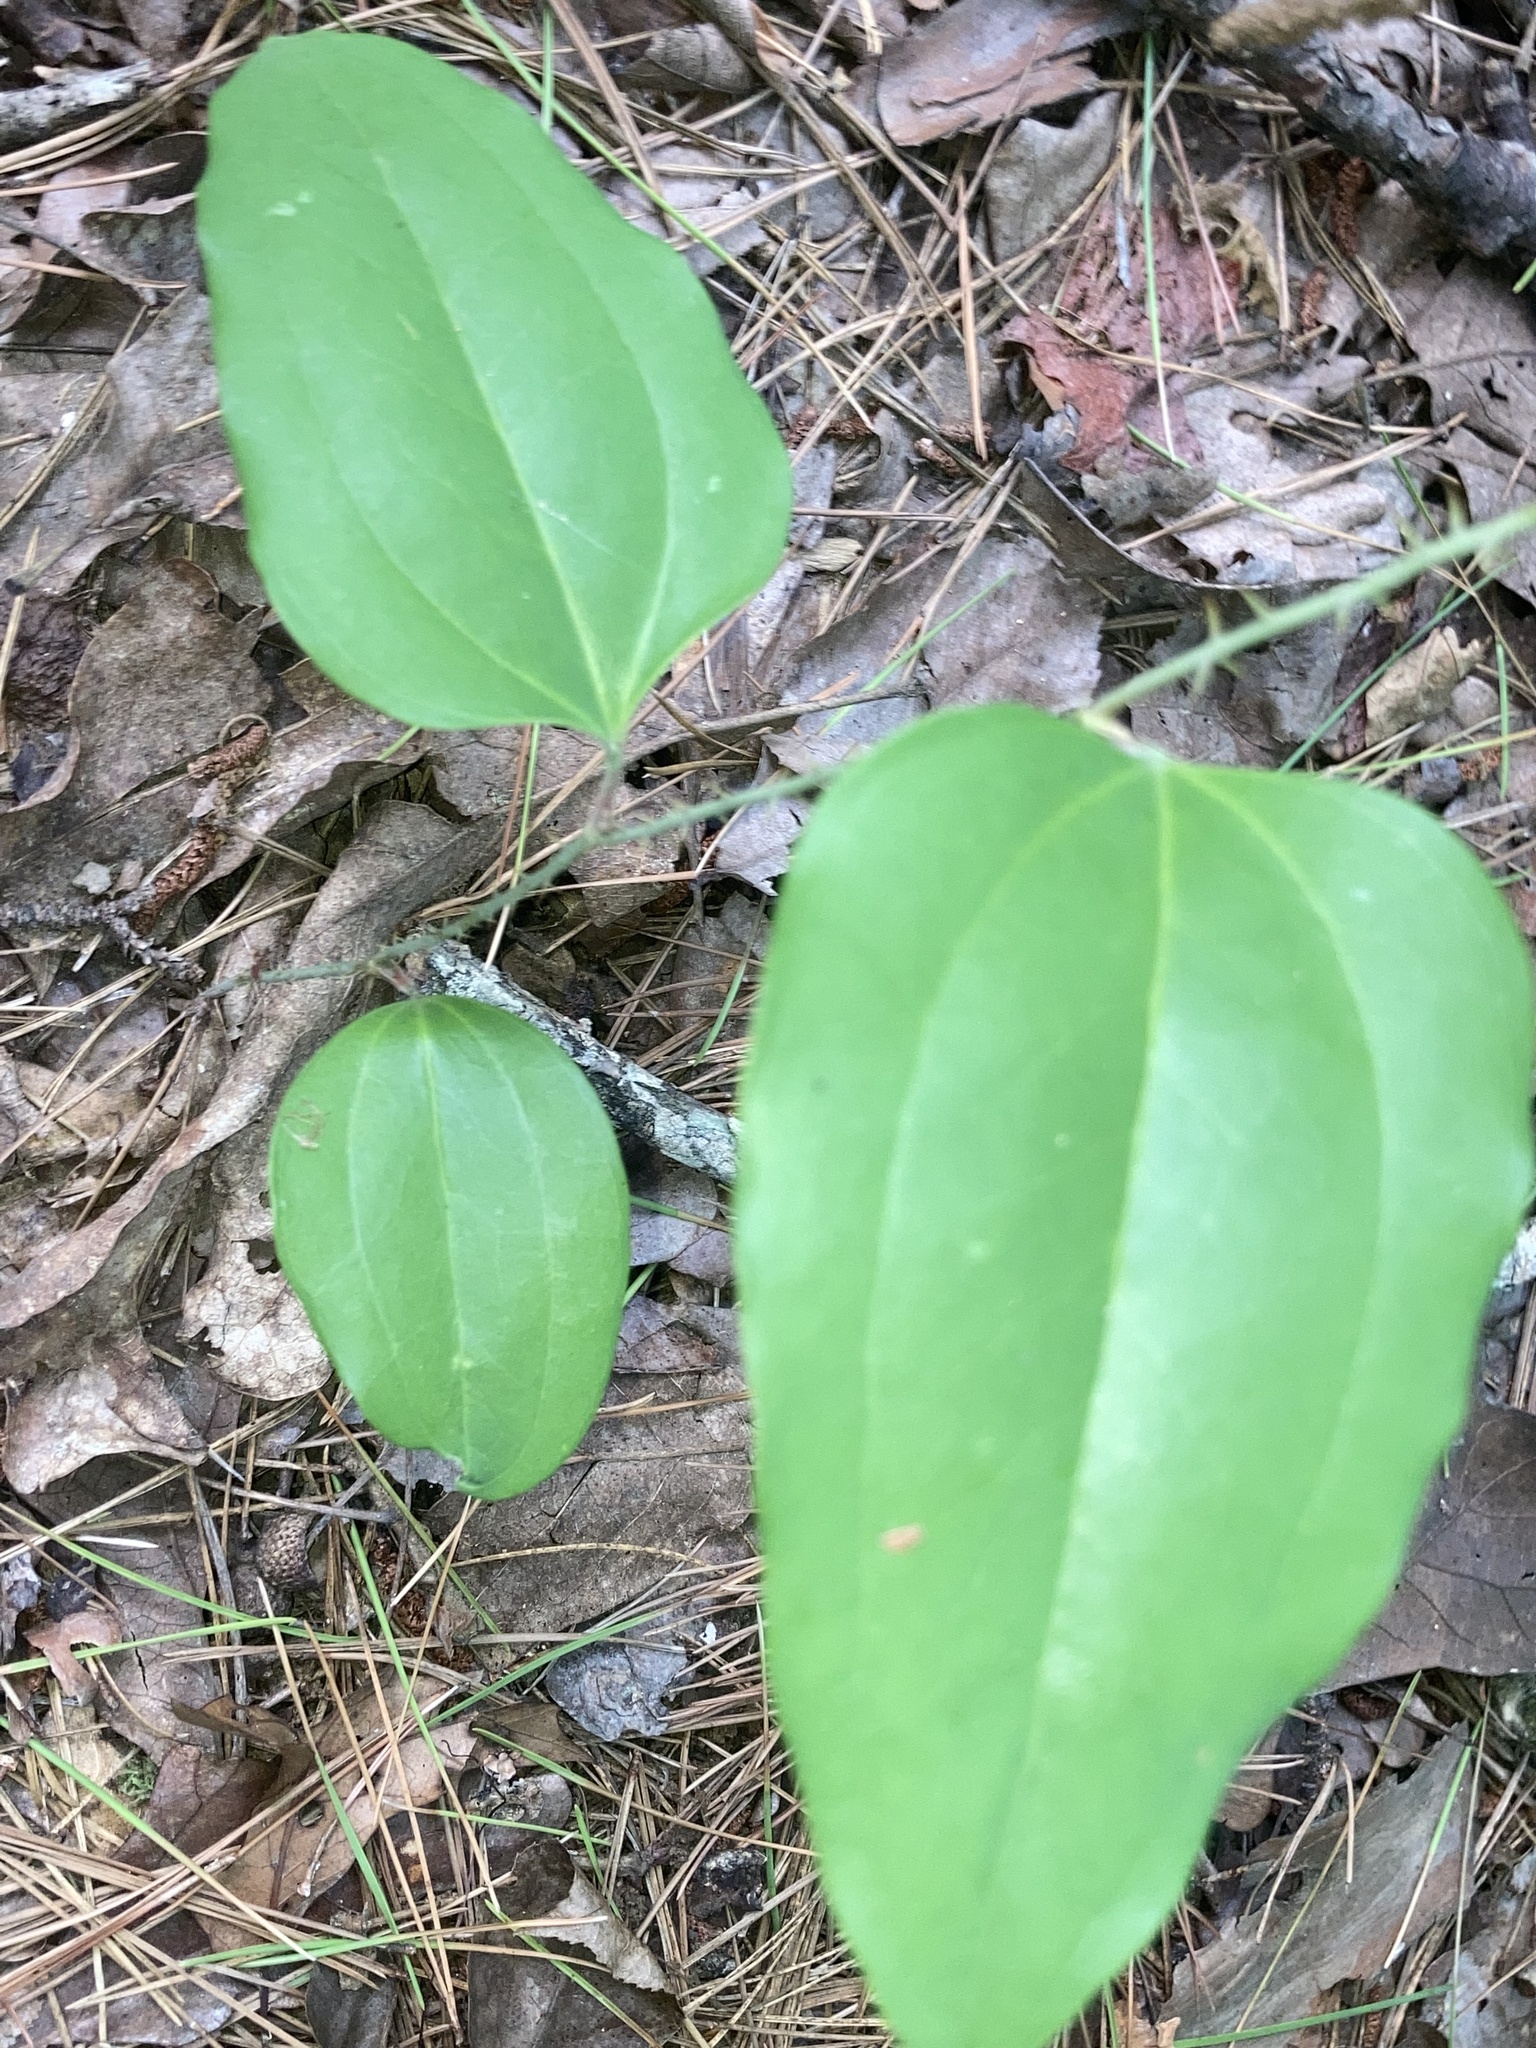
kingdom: Plantae
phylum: Tracheophyta
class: Liliopsida
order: Liliales
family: Smilacaceae
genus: Smilax
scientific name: Smilax glauca
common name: Cat greenbrier
